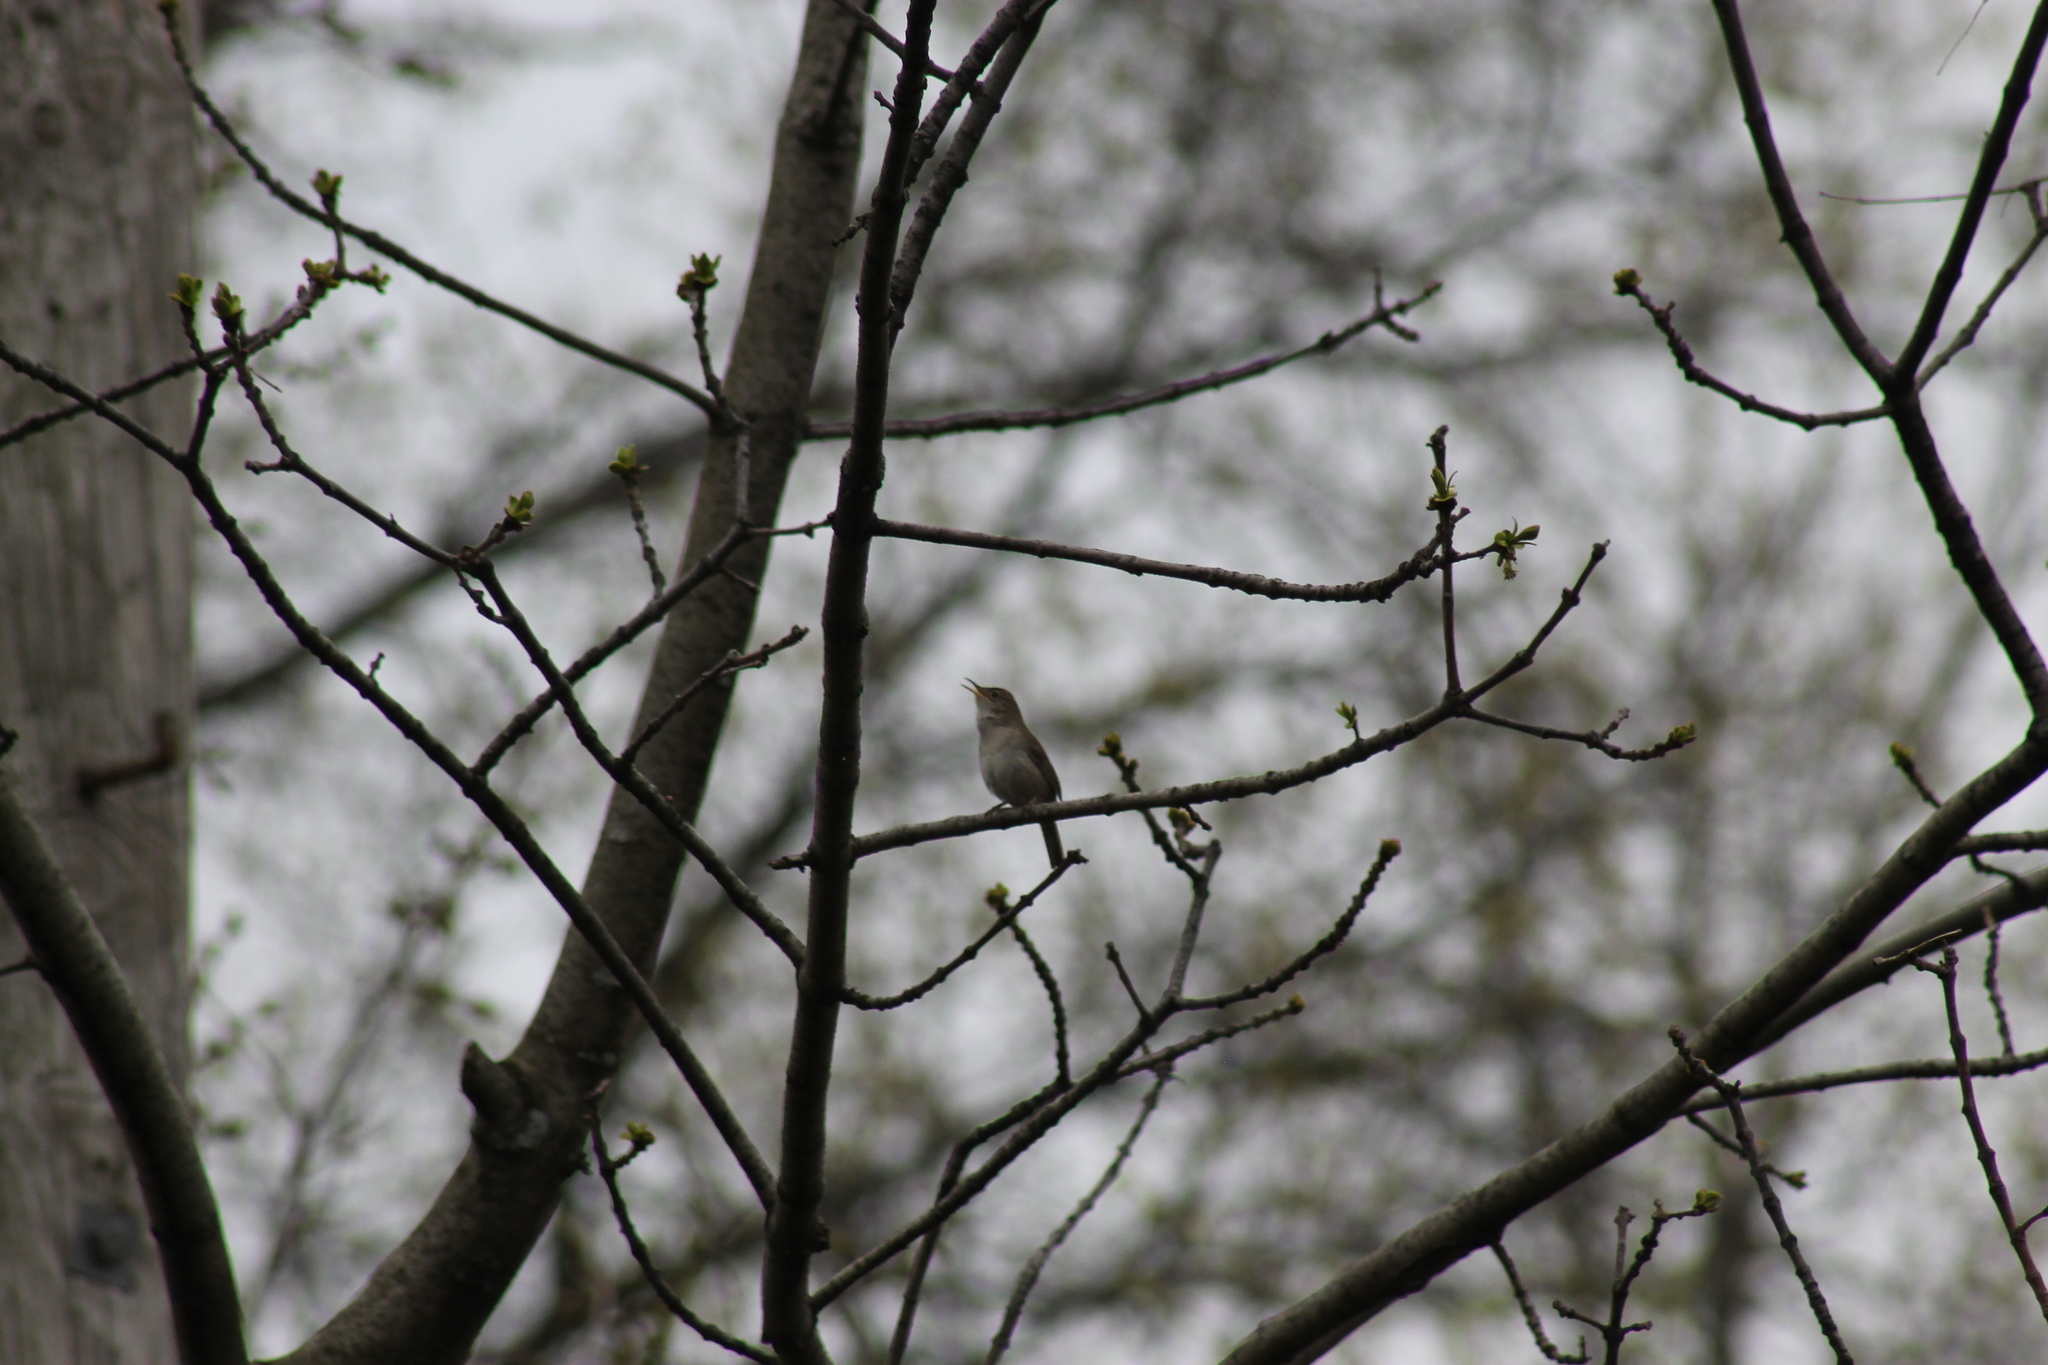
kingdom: Animalia
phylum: Chordata
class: Aves
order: Passeriformes
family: Troglodytidae
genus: Troglodytes
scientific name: Troglodytes aedon
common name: House wren
